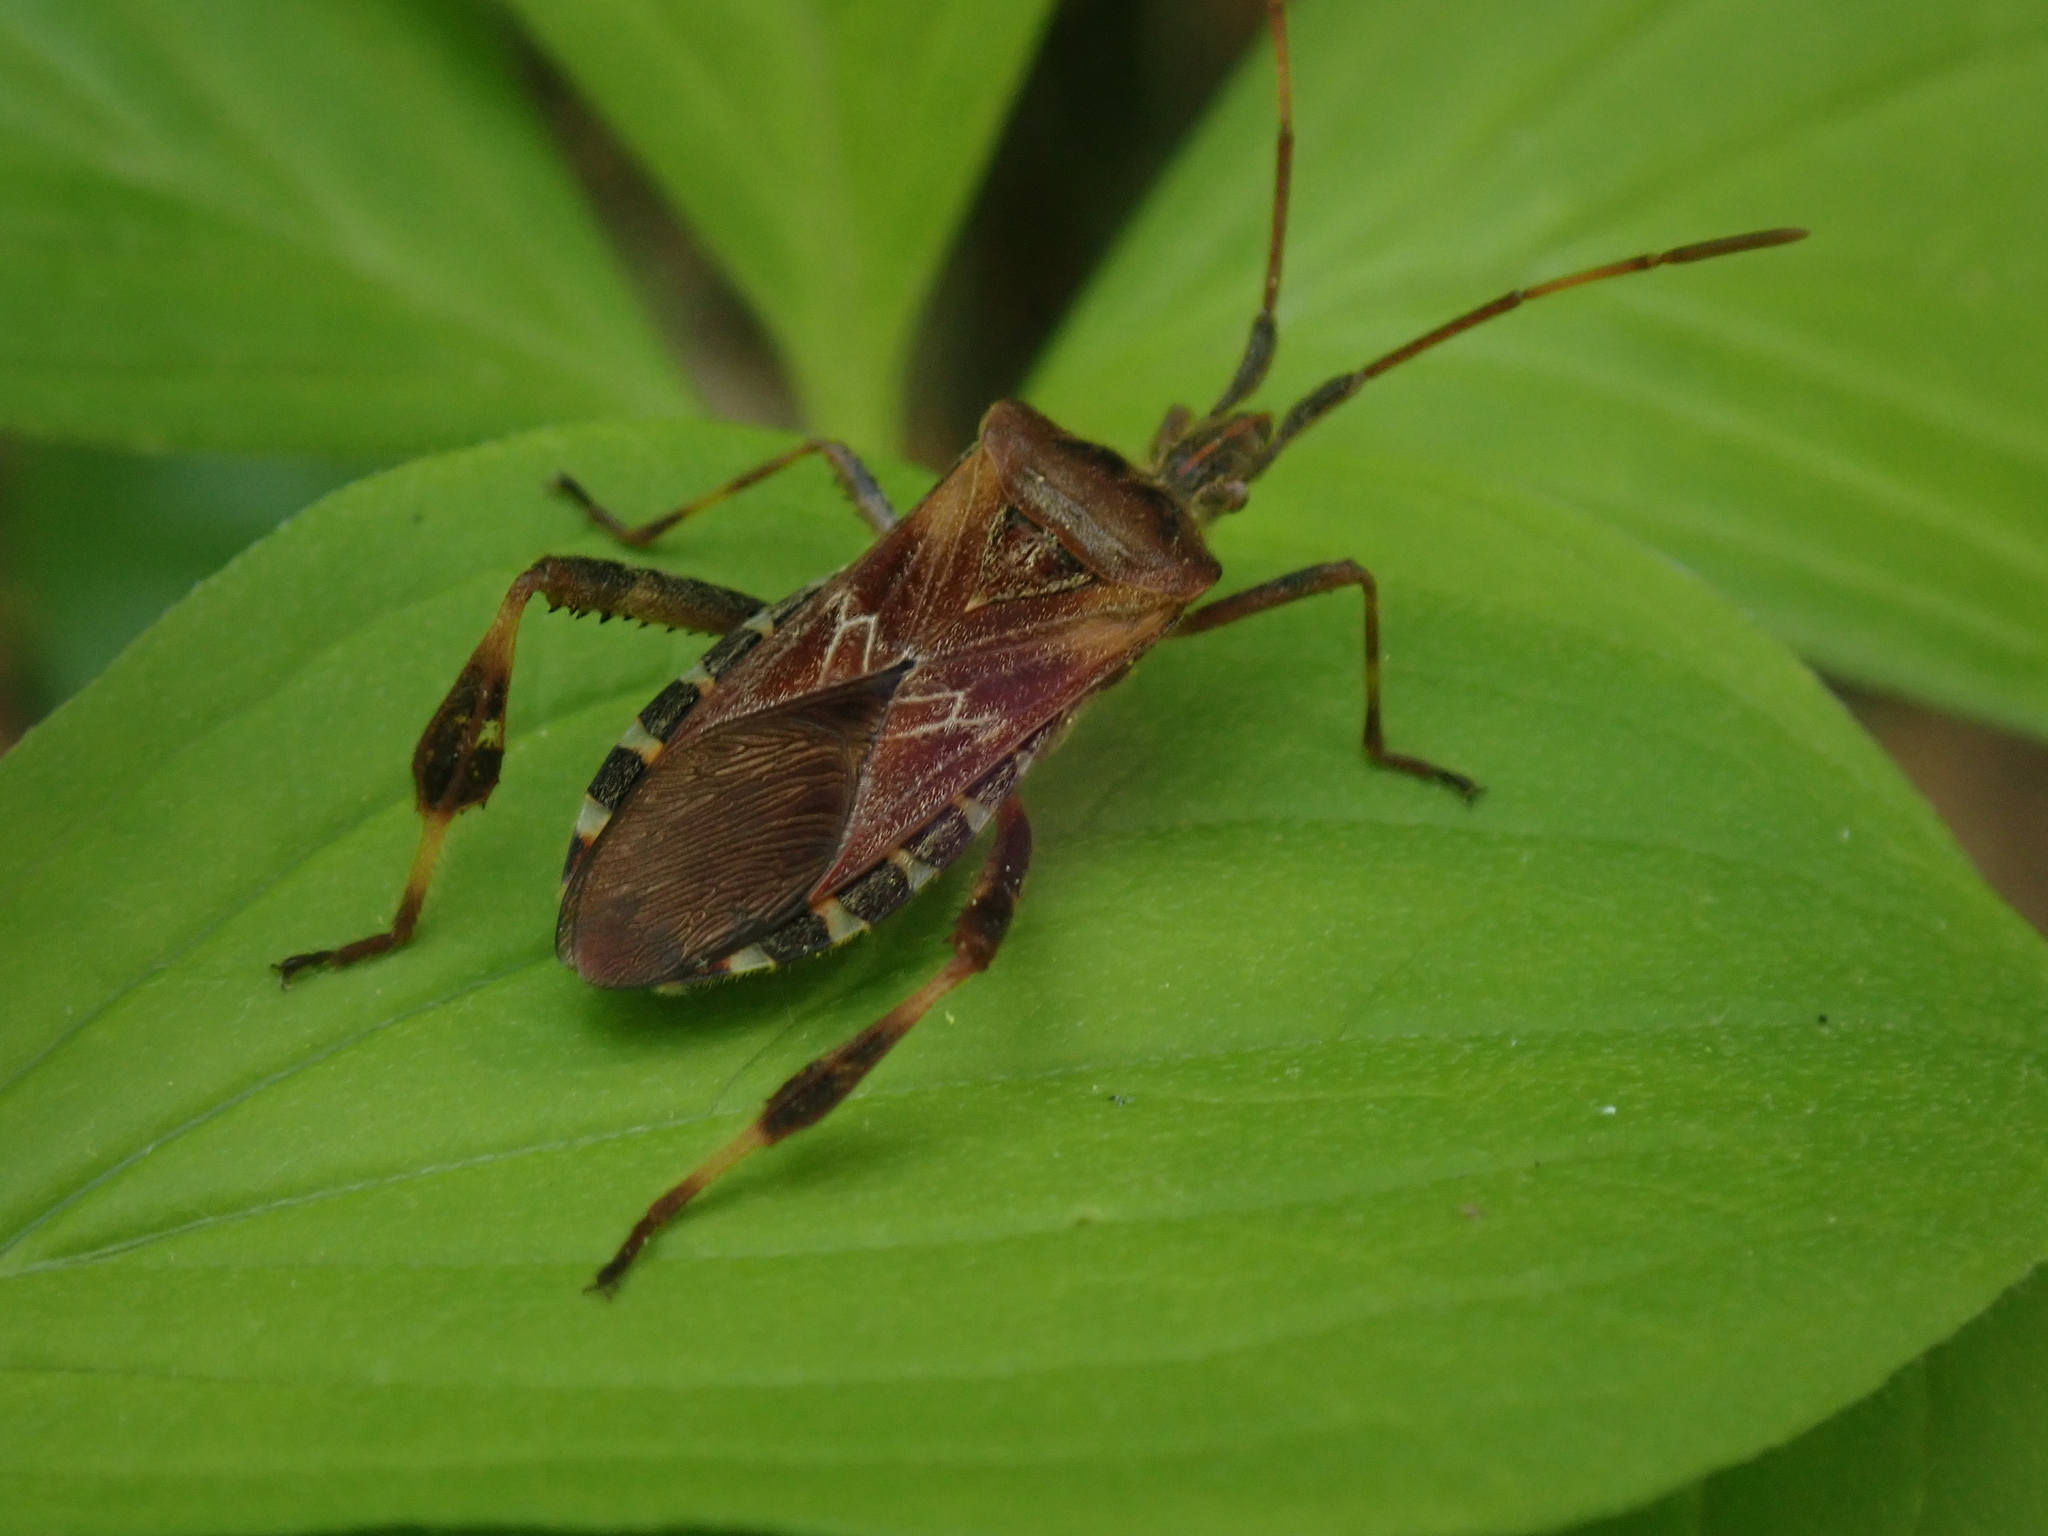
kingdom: Animalia
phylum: Arthropoda
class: Insecta
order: Hemiptera
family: Coreidae
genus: Leptoglossus
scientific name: Leptoglossus occidentalis
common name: Western conifer-seed bug
